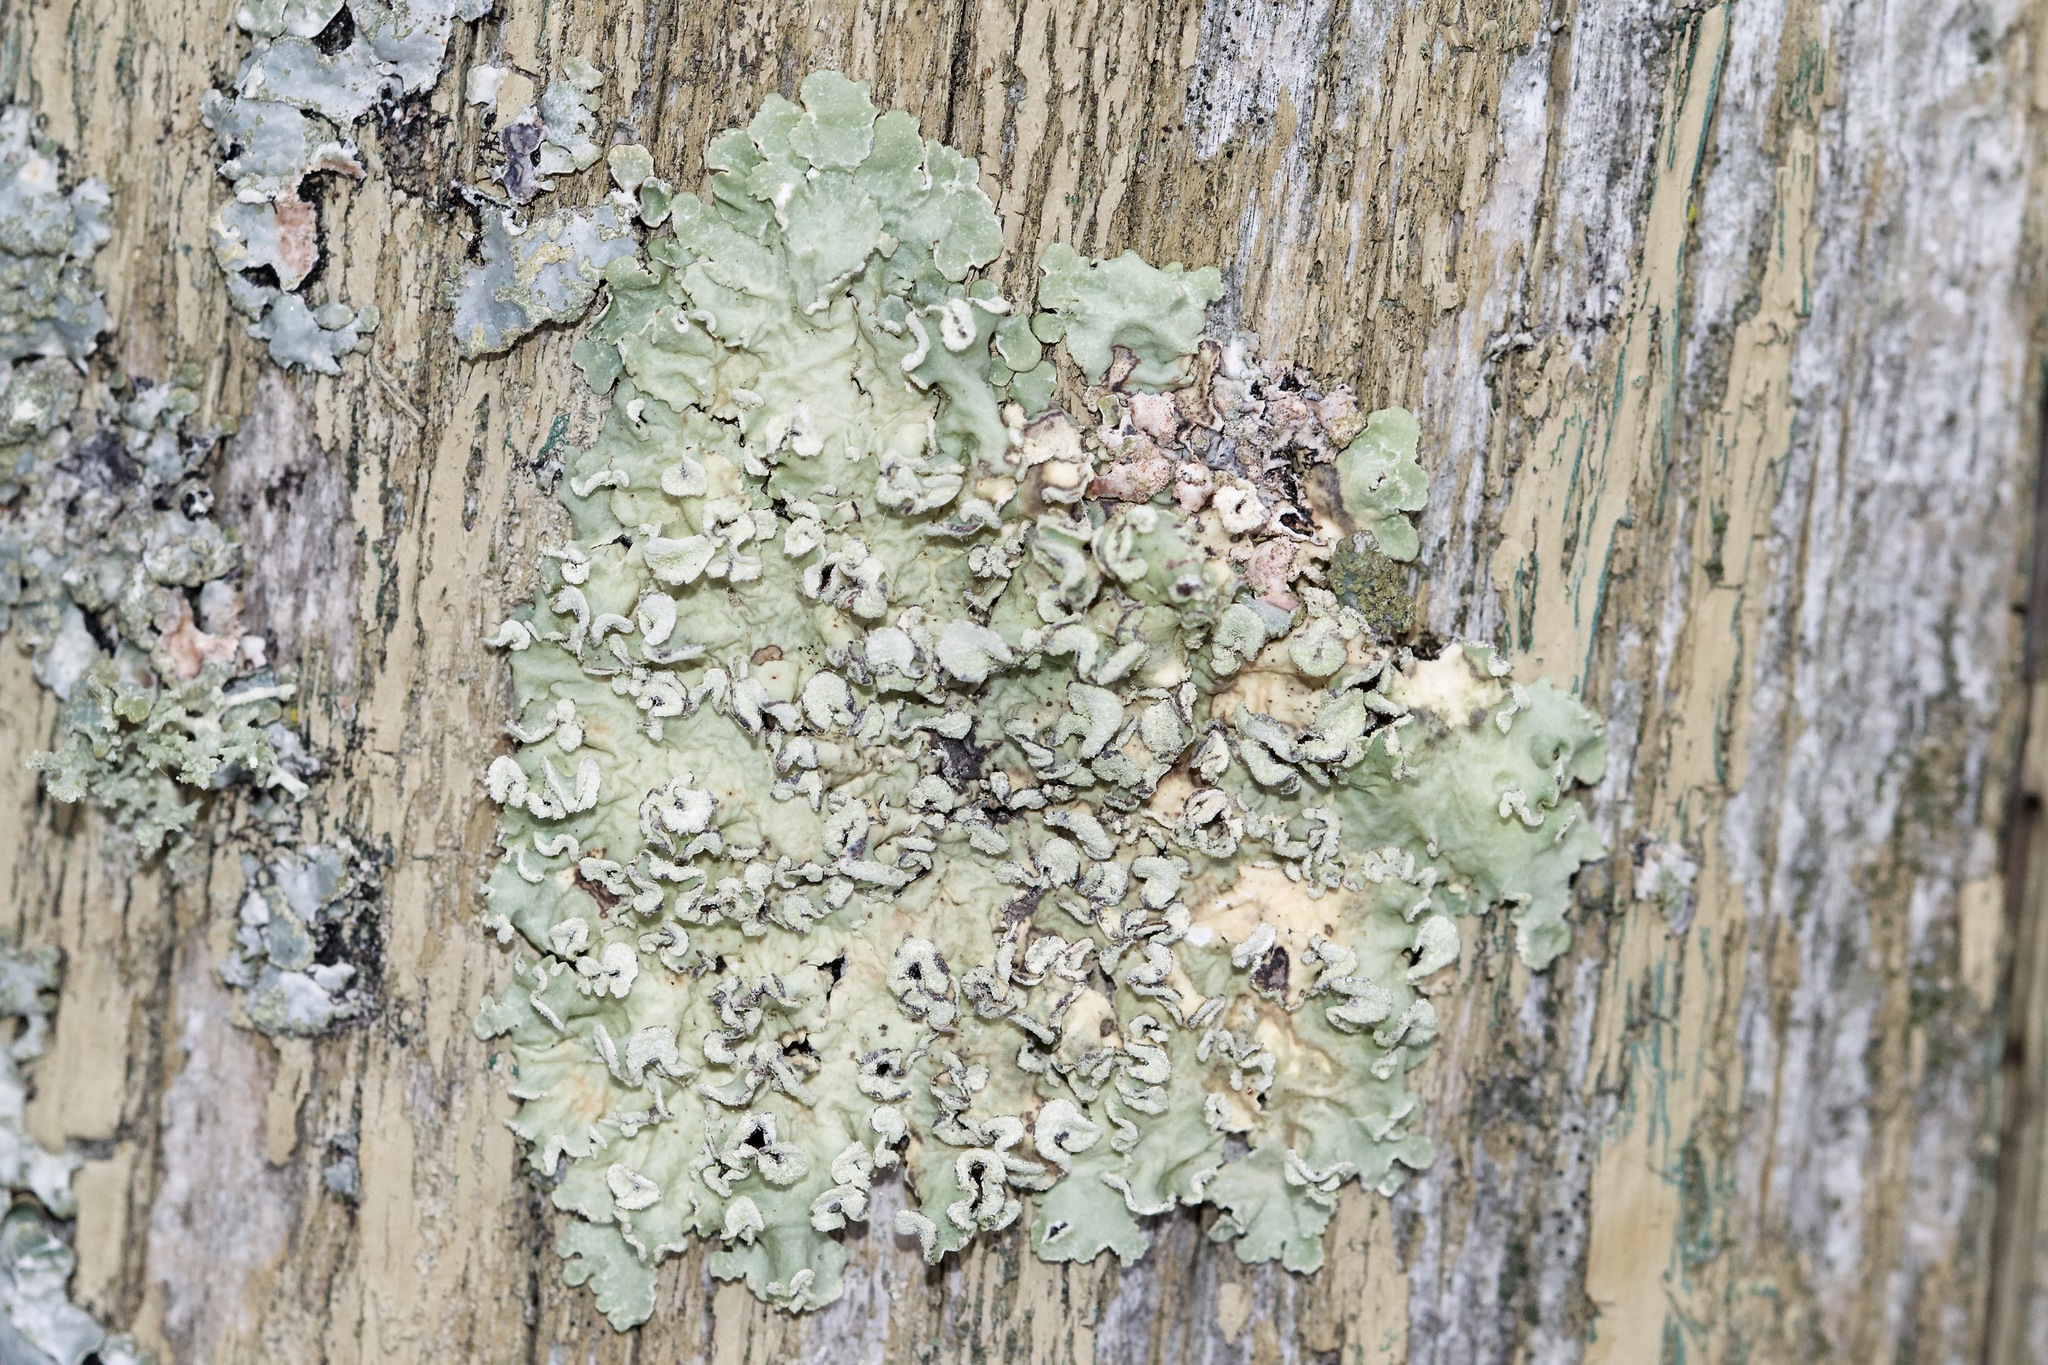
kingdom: Fungi
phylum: Ascomycota
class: Lecanoromycetes
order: Lecanorales
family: Parmeliaceae
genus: Flavopunctelia
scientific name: Flavopunctelia soredica
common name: Powder-edged speckled greenshield
